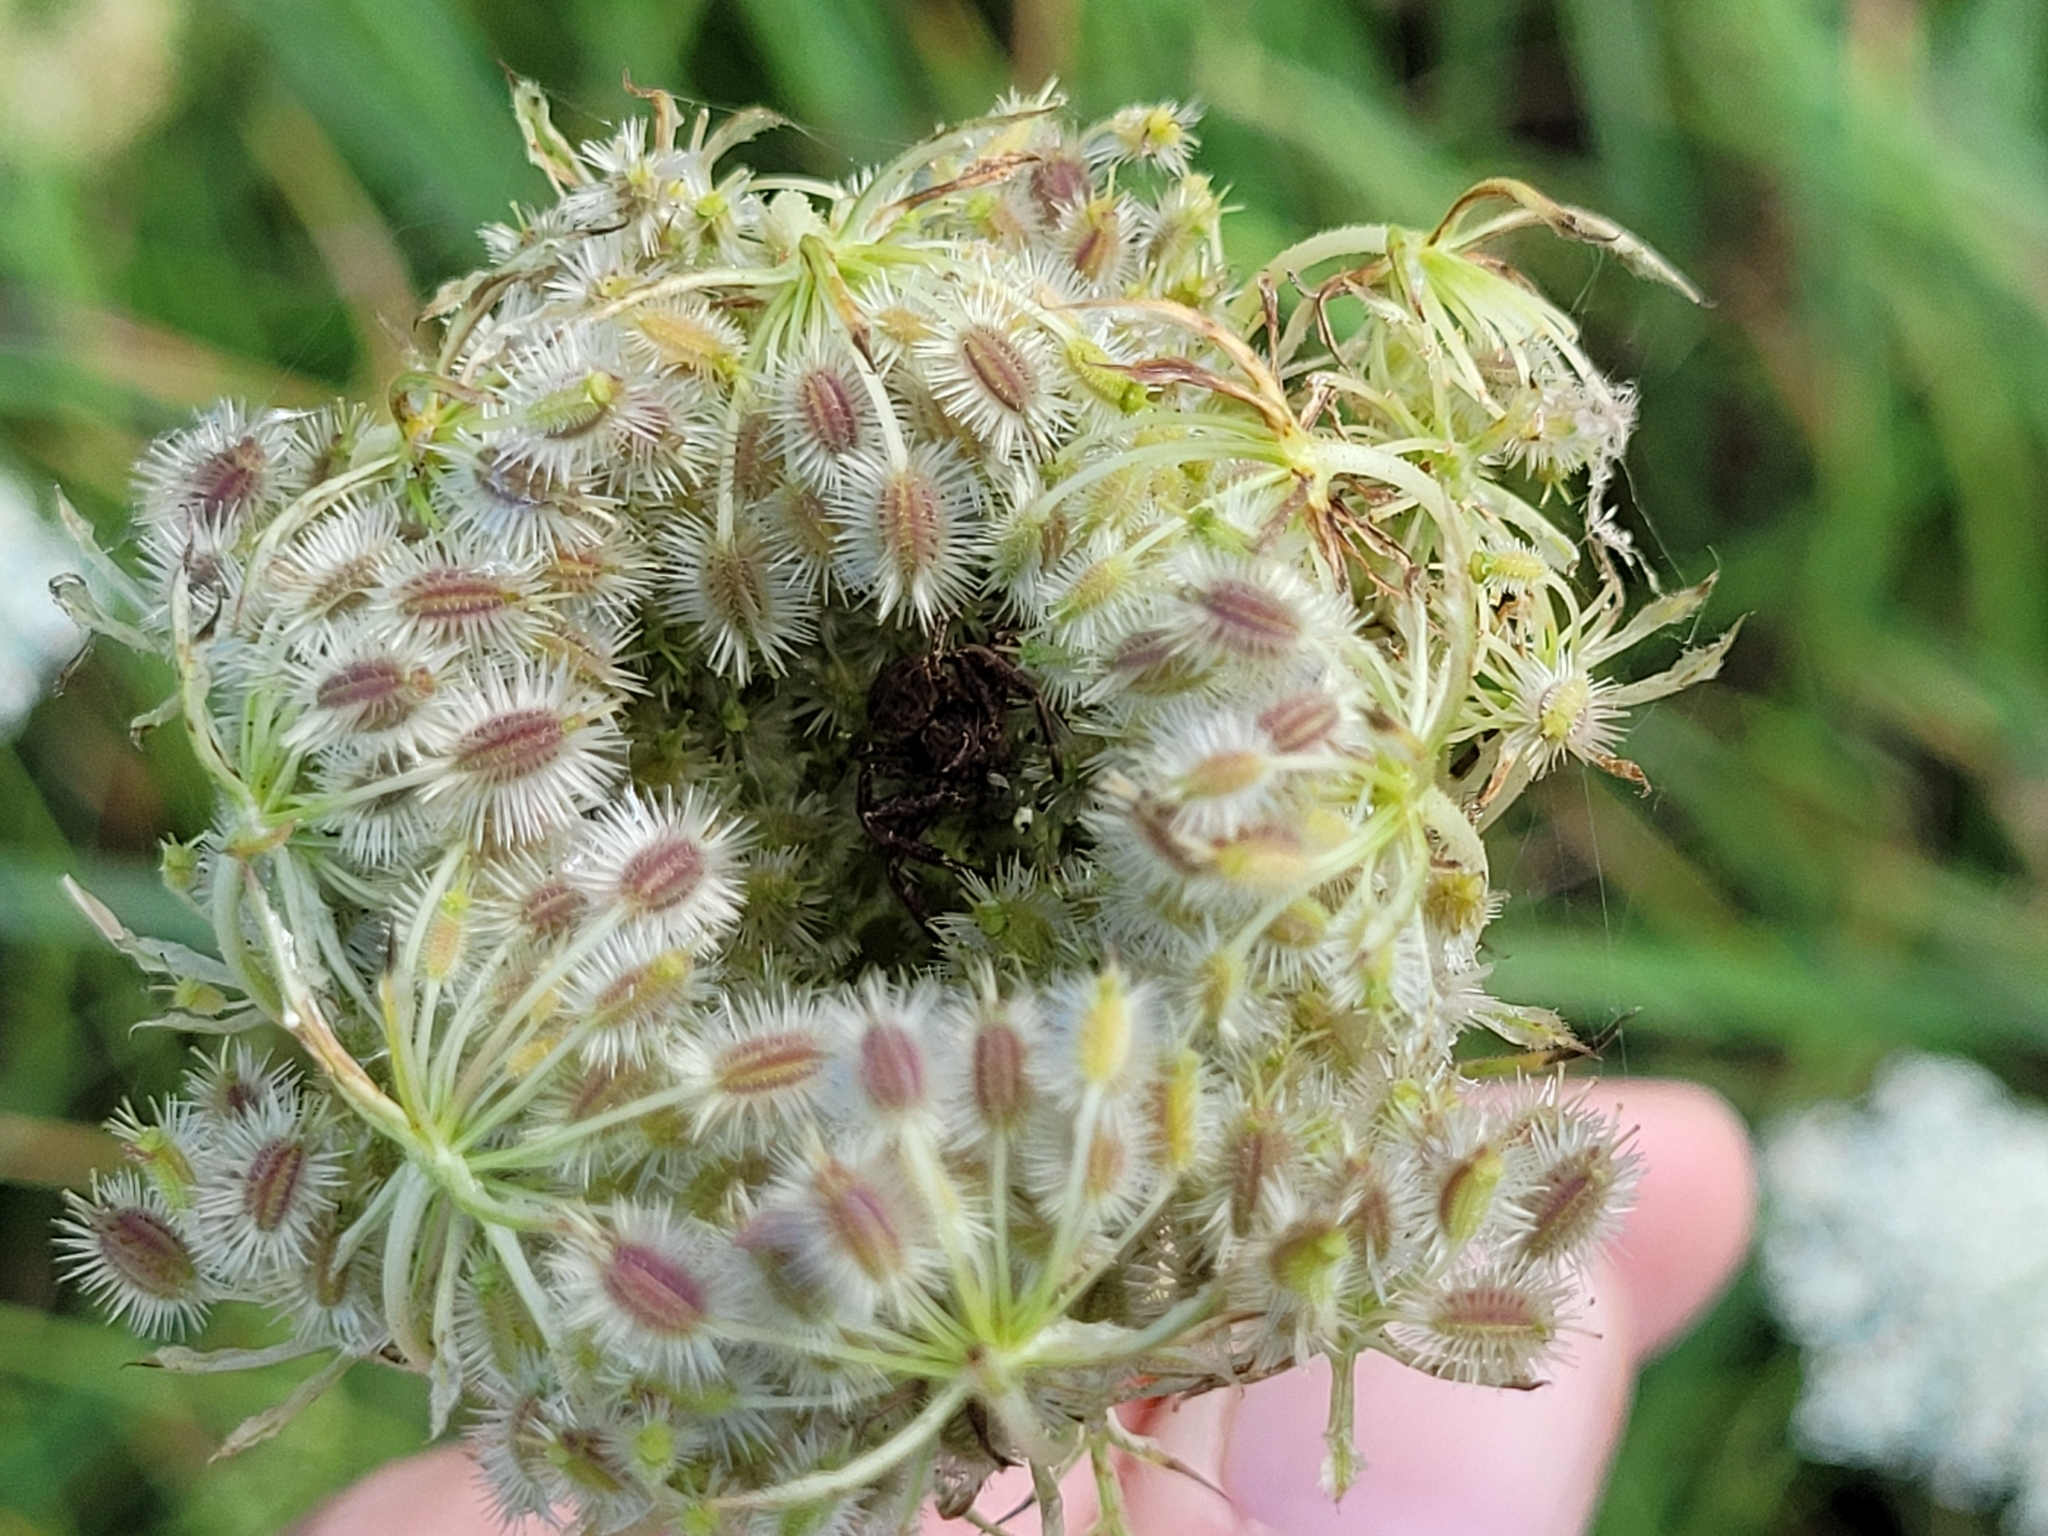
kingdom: Plantae
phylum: Tracheophyta
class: Magnoliopsida
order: Apiales
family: Apiaceae
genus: Daucus
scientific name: Daucus carota
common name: Wild carrot
